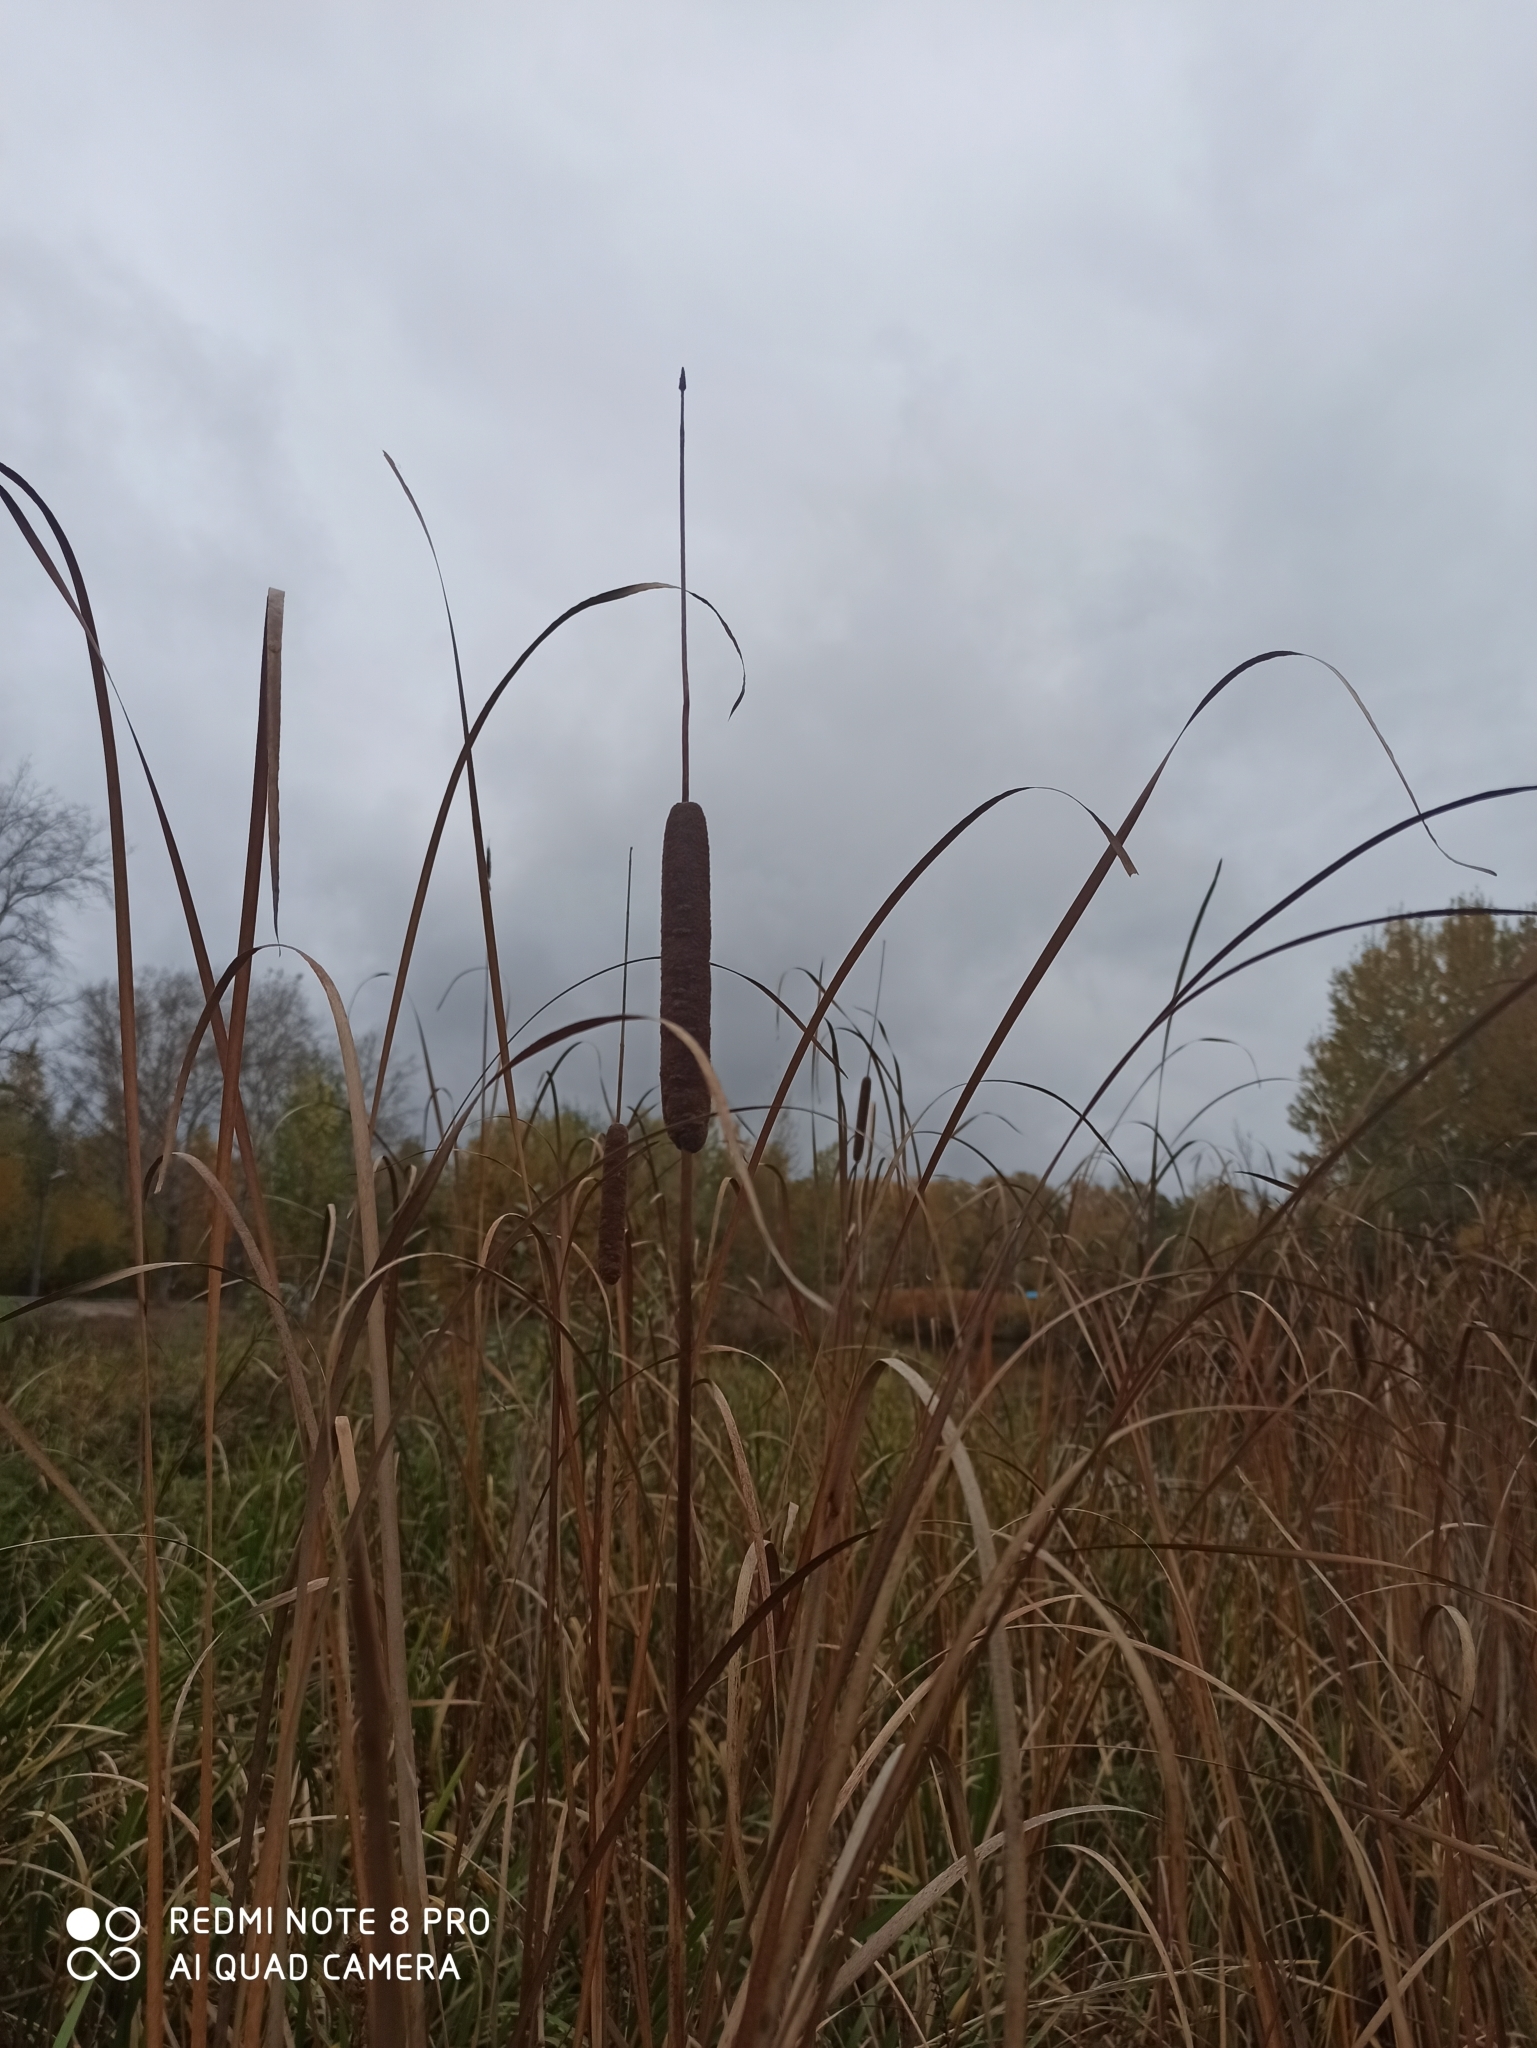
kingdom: Plantae
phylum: Tracheophyta
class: Liliopsida
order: Poales
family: Typhaceae
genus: Typha
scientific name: Typha angustifolia
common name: Lesser bulrush
